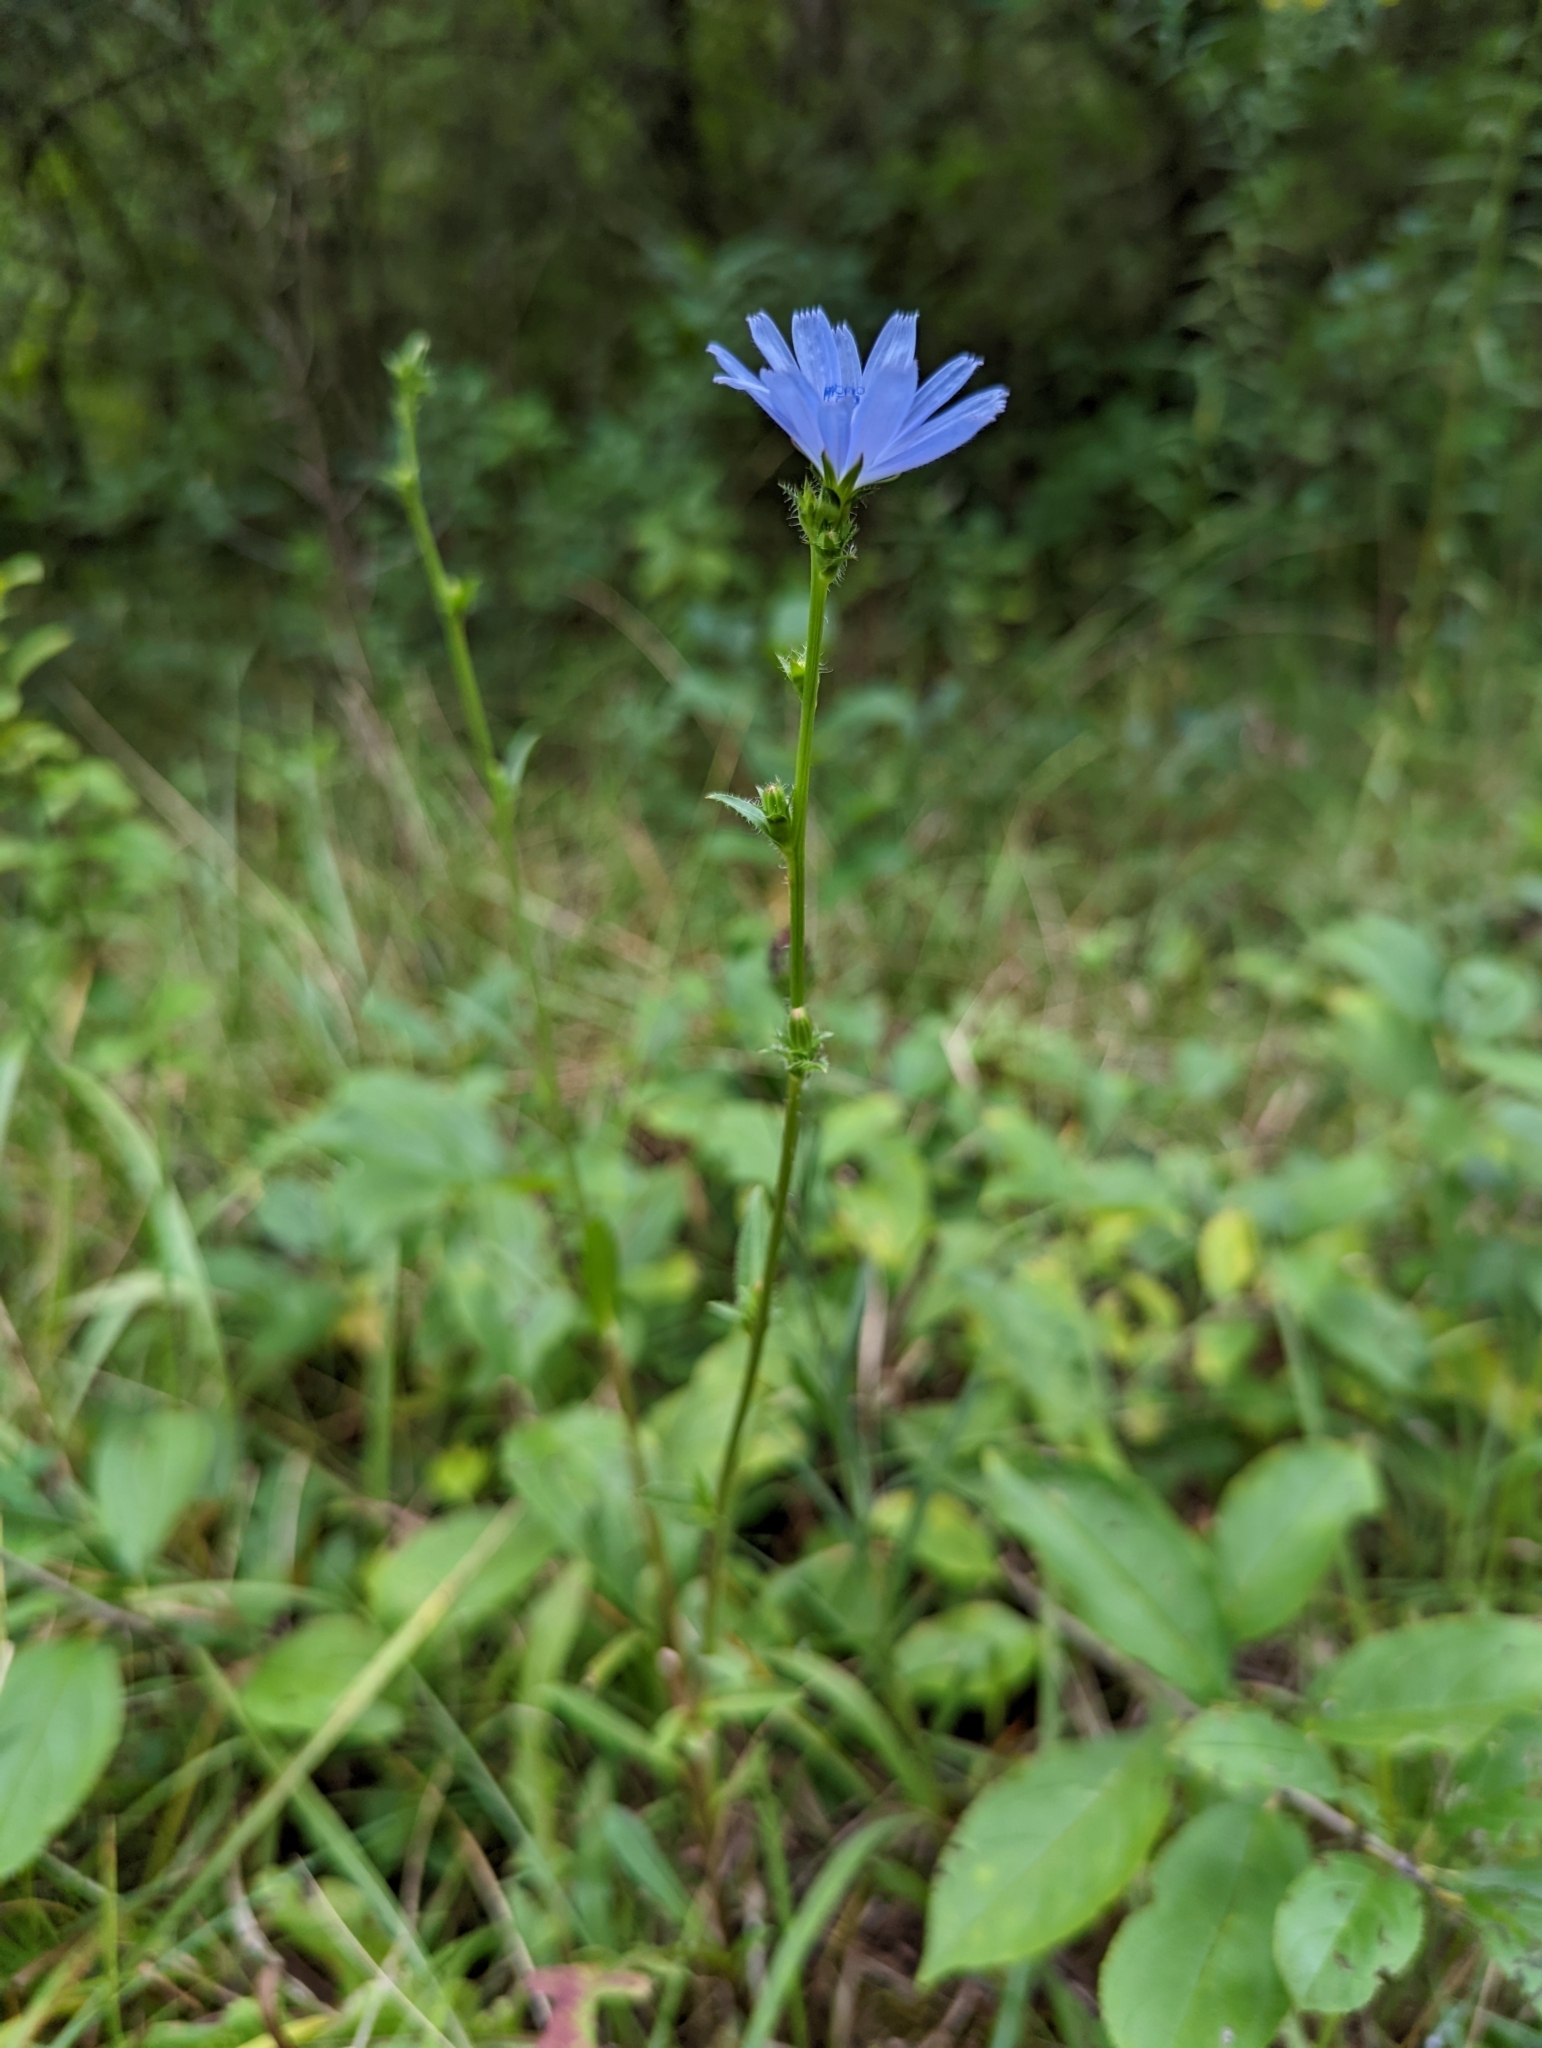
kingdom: Plantae
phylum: Tracheophyta
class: Magnoliopsida
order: Asterales
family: Asteraceae
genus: Cichorium
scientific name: Cichorium intybus
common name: Chicory
